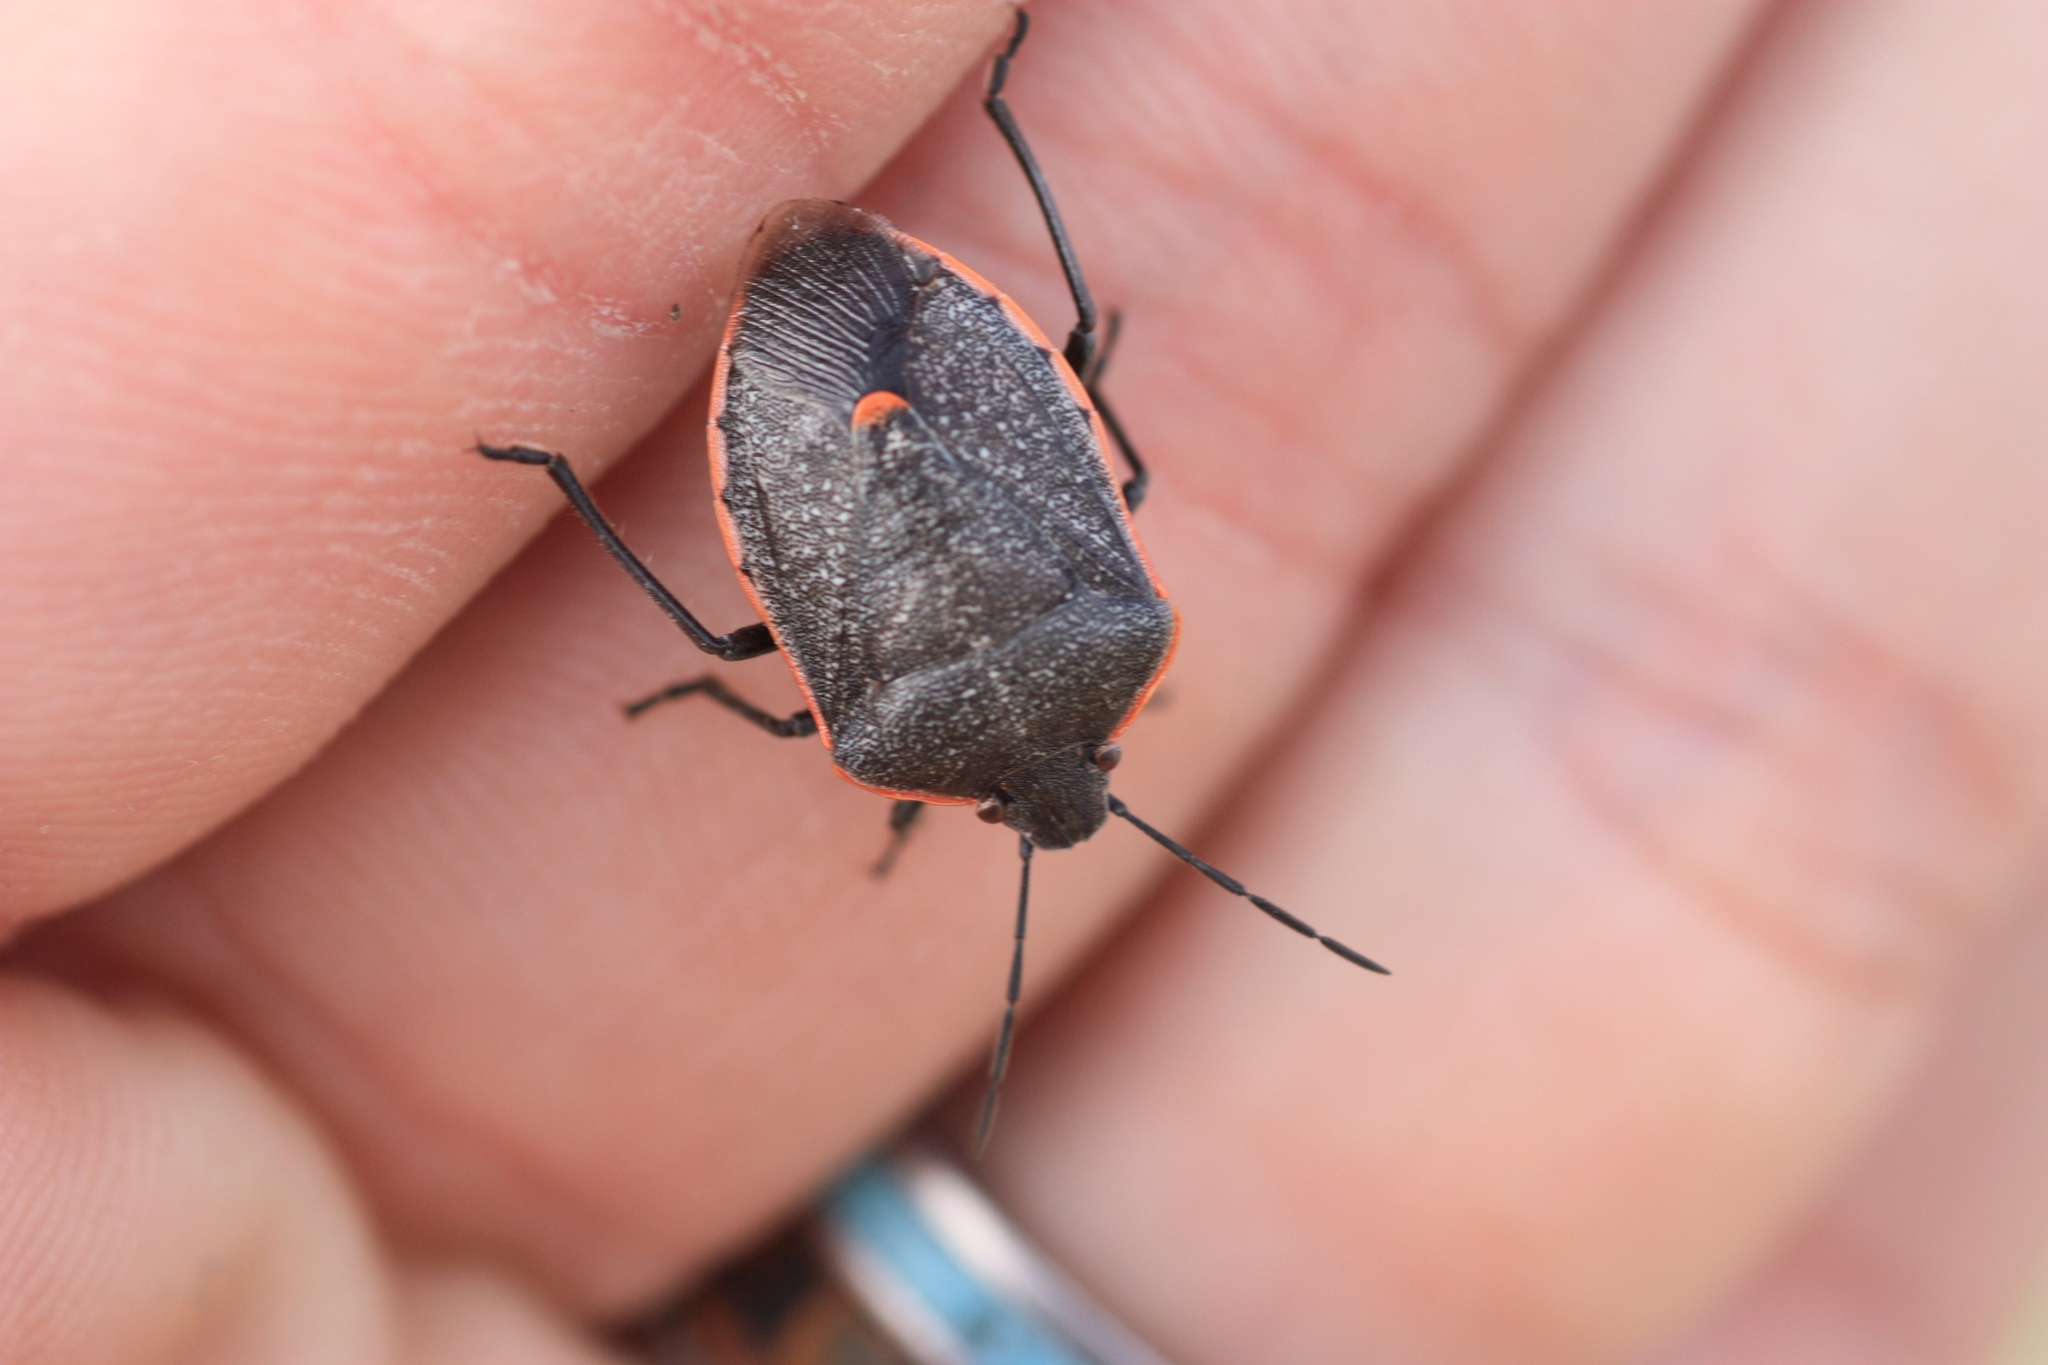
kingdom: Animalia
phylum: Arthropoda
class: Insecta
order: Hemiptera
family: Pentatomidae
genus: Chlorochroa
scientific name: Chlorochroa ligata
